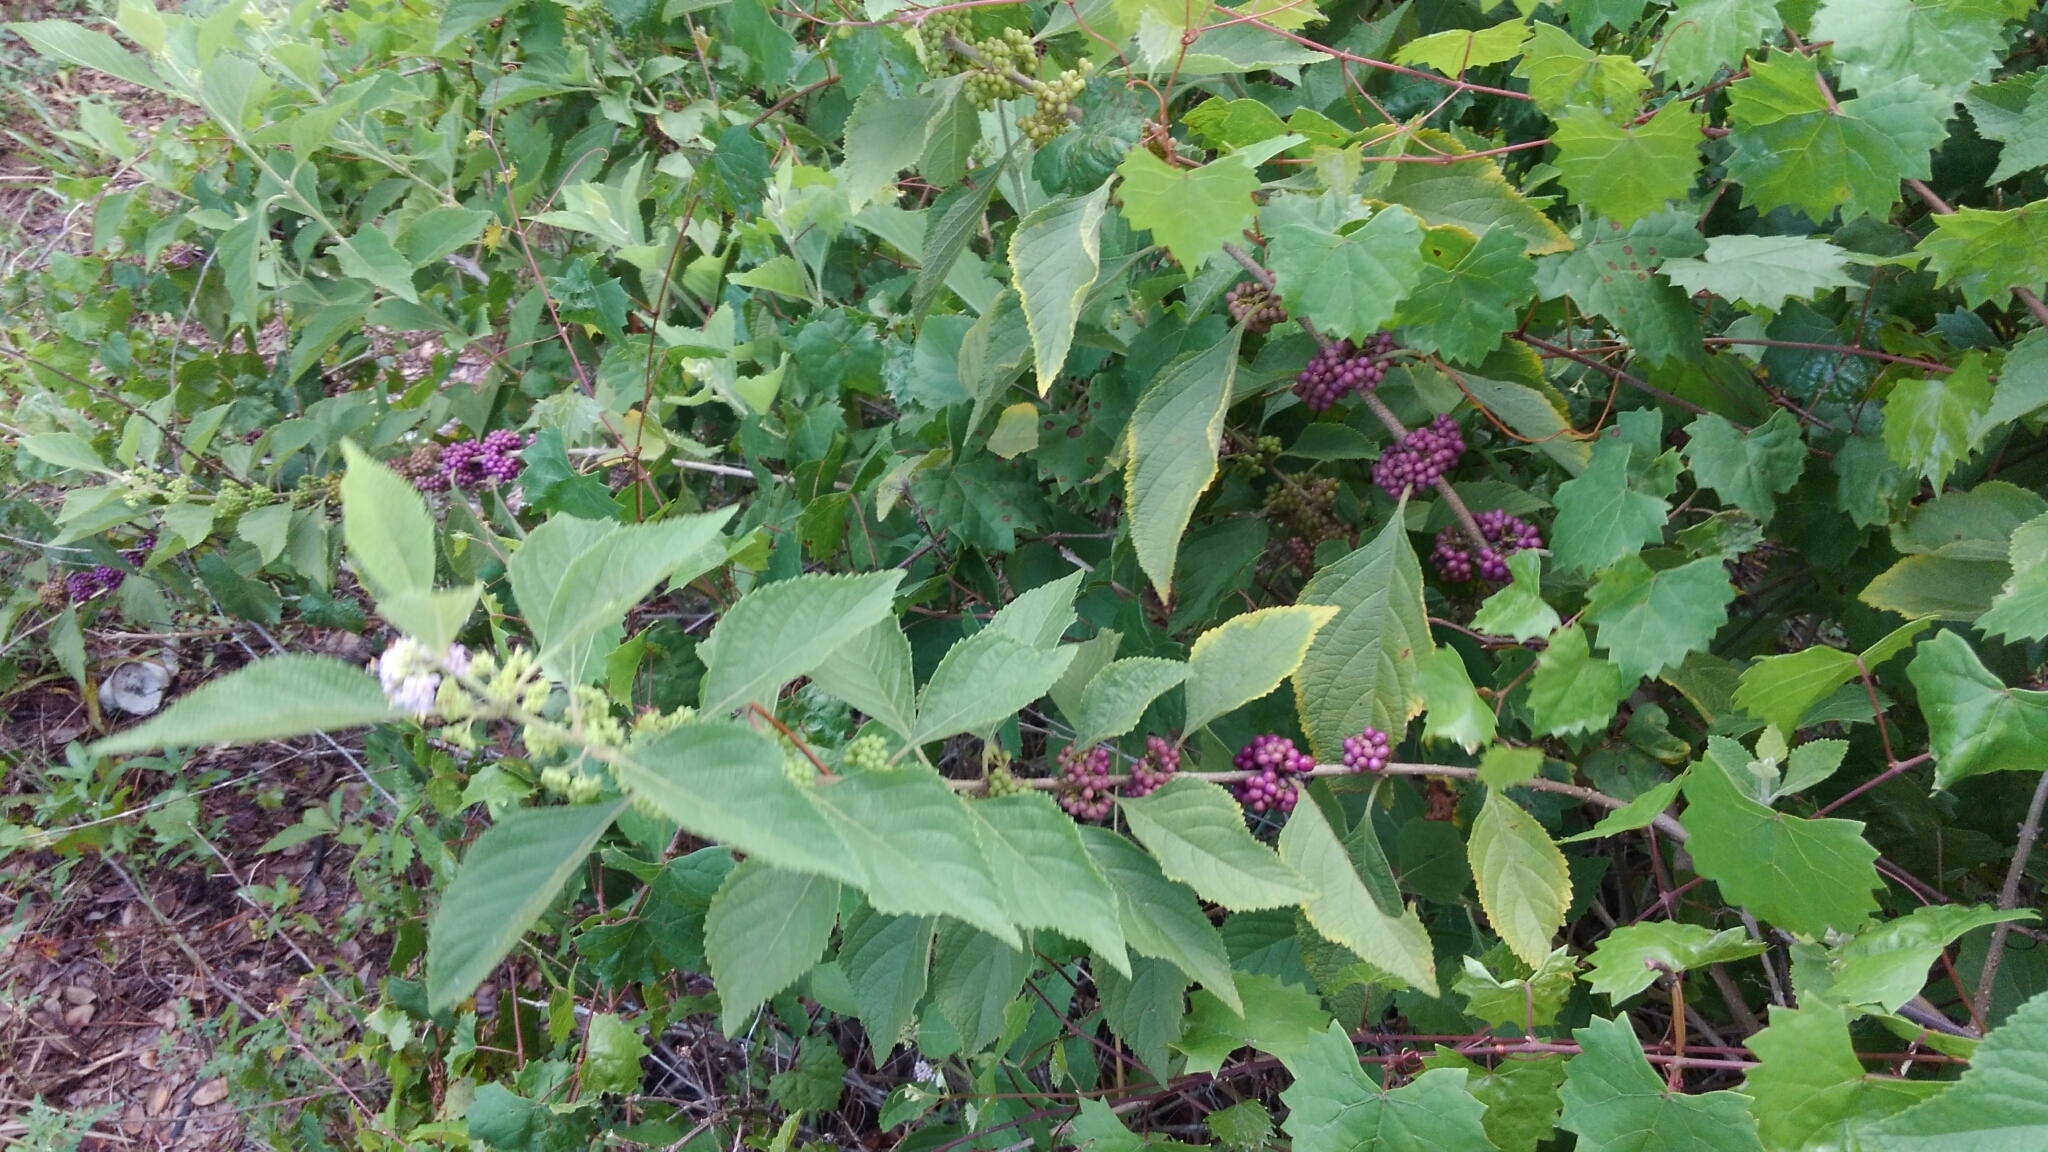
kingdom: Plantae
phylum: Tracheophyta
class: Magnoliopsida
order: Lamiales
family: Lamiaceae
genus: Callicarpa
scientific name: Callicarpa americana
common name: American beautyberry
